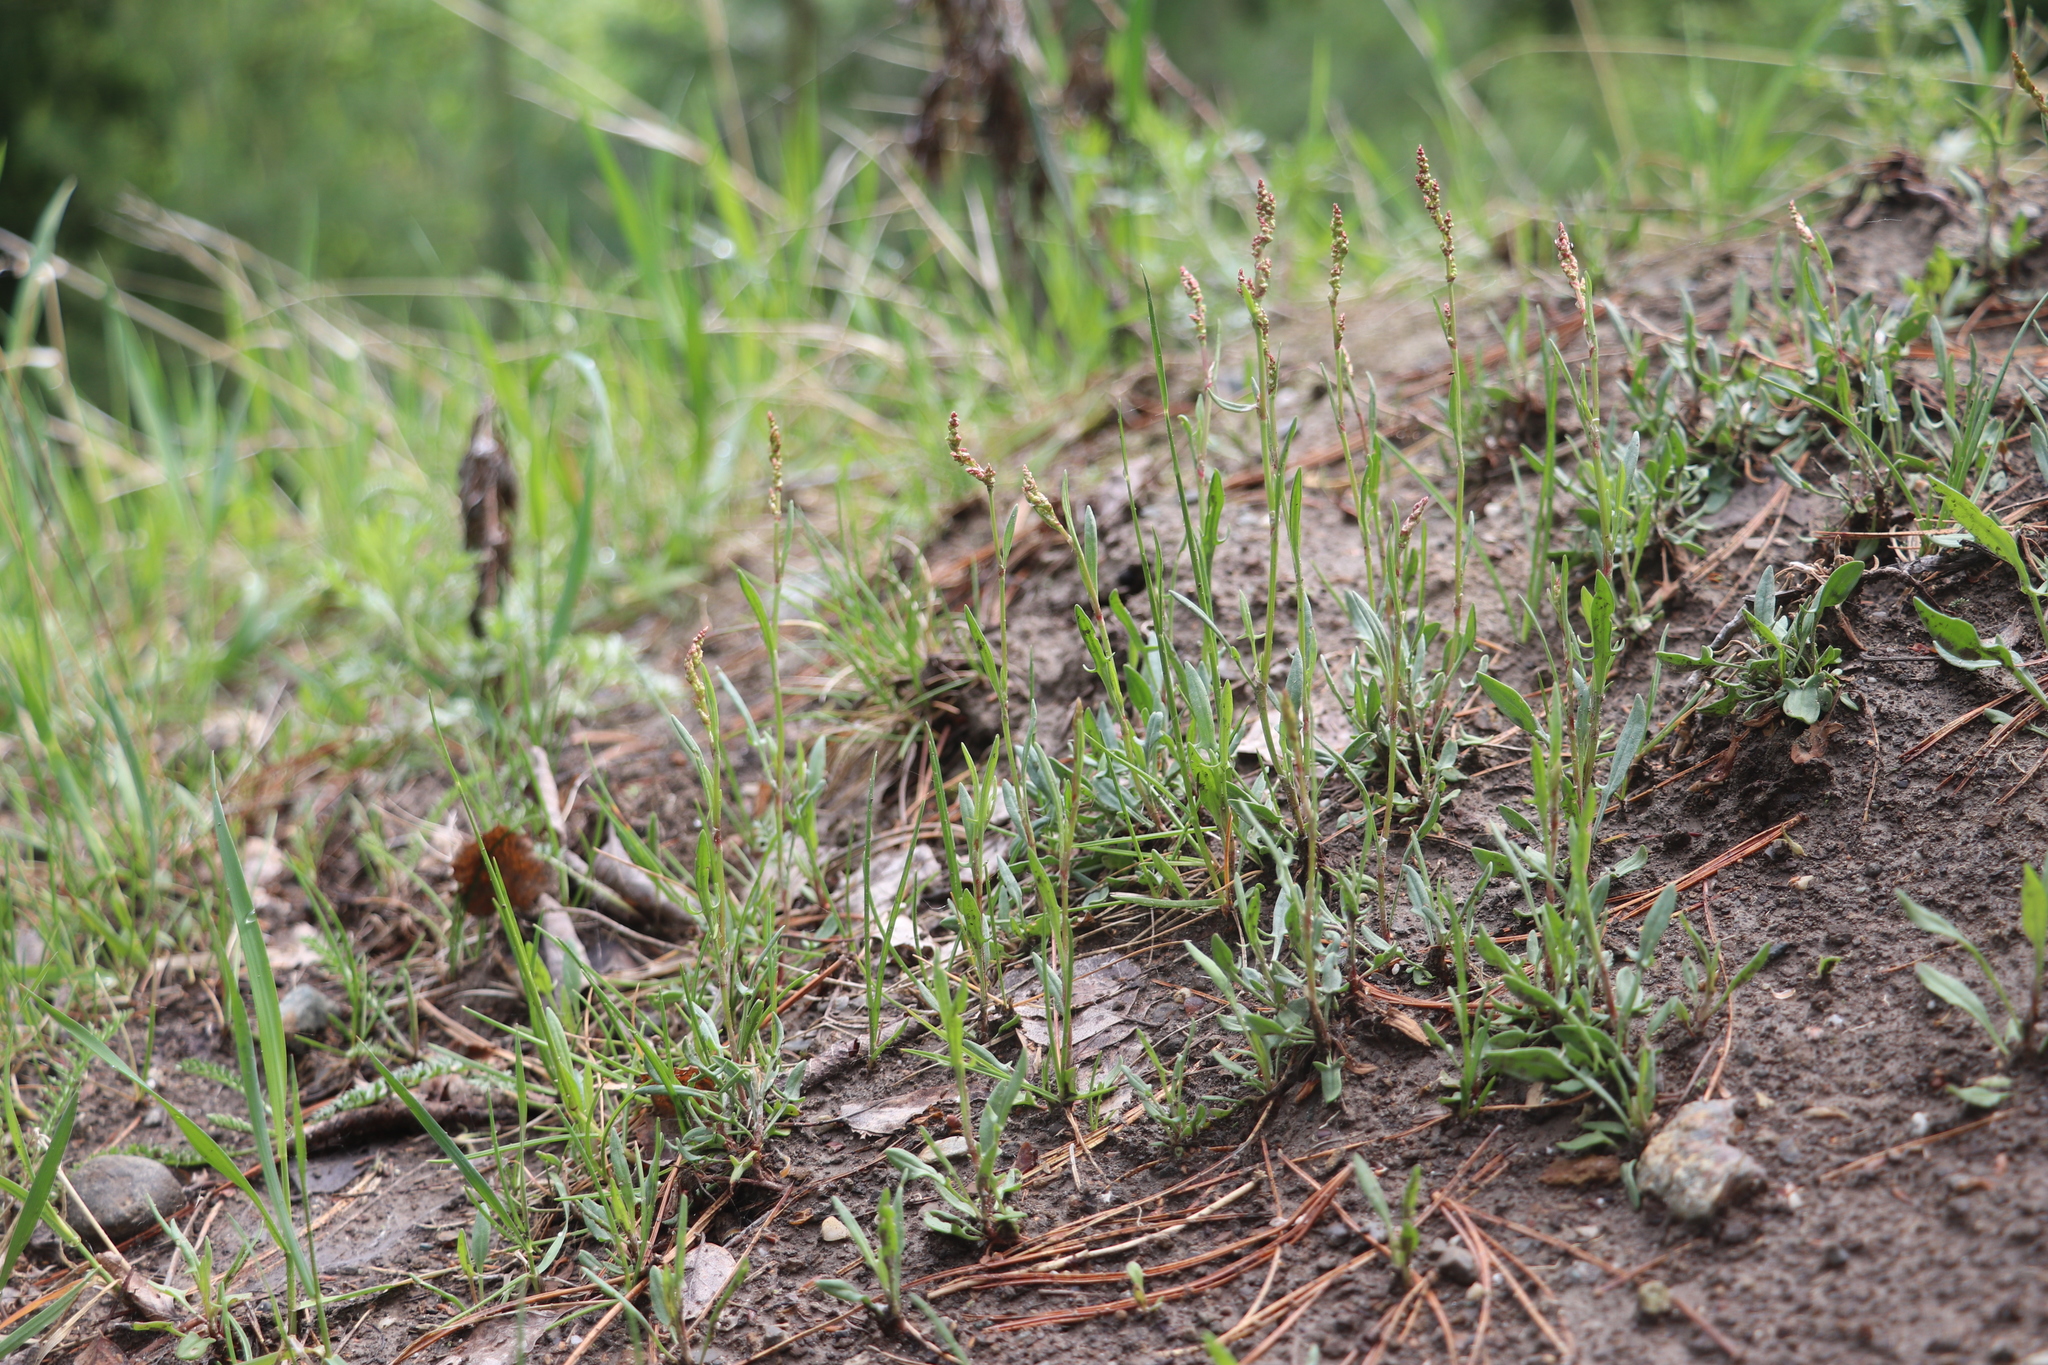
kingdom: Plantae
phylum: Tracheophyta
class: Magnoliopsida
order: Caryophyllales
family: Polygonaceae
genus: Rumex
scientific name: Rumex acetosella
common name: Common sheep sorrel
